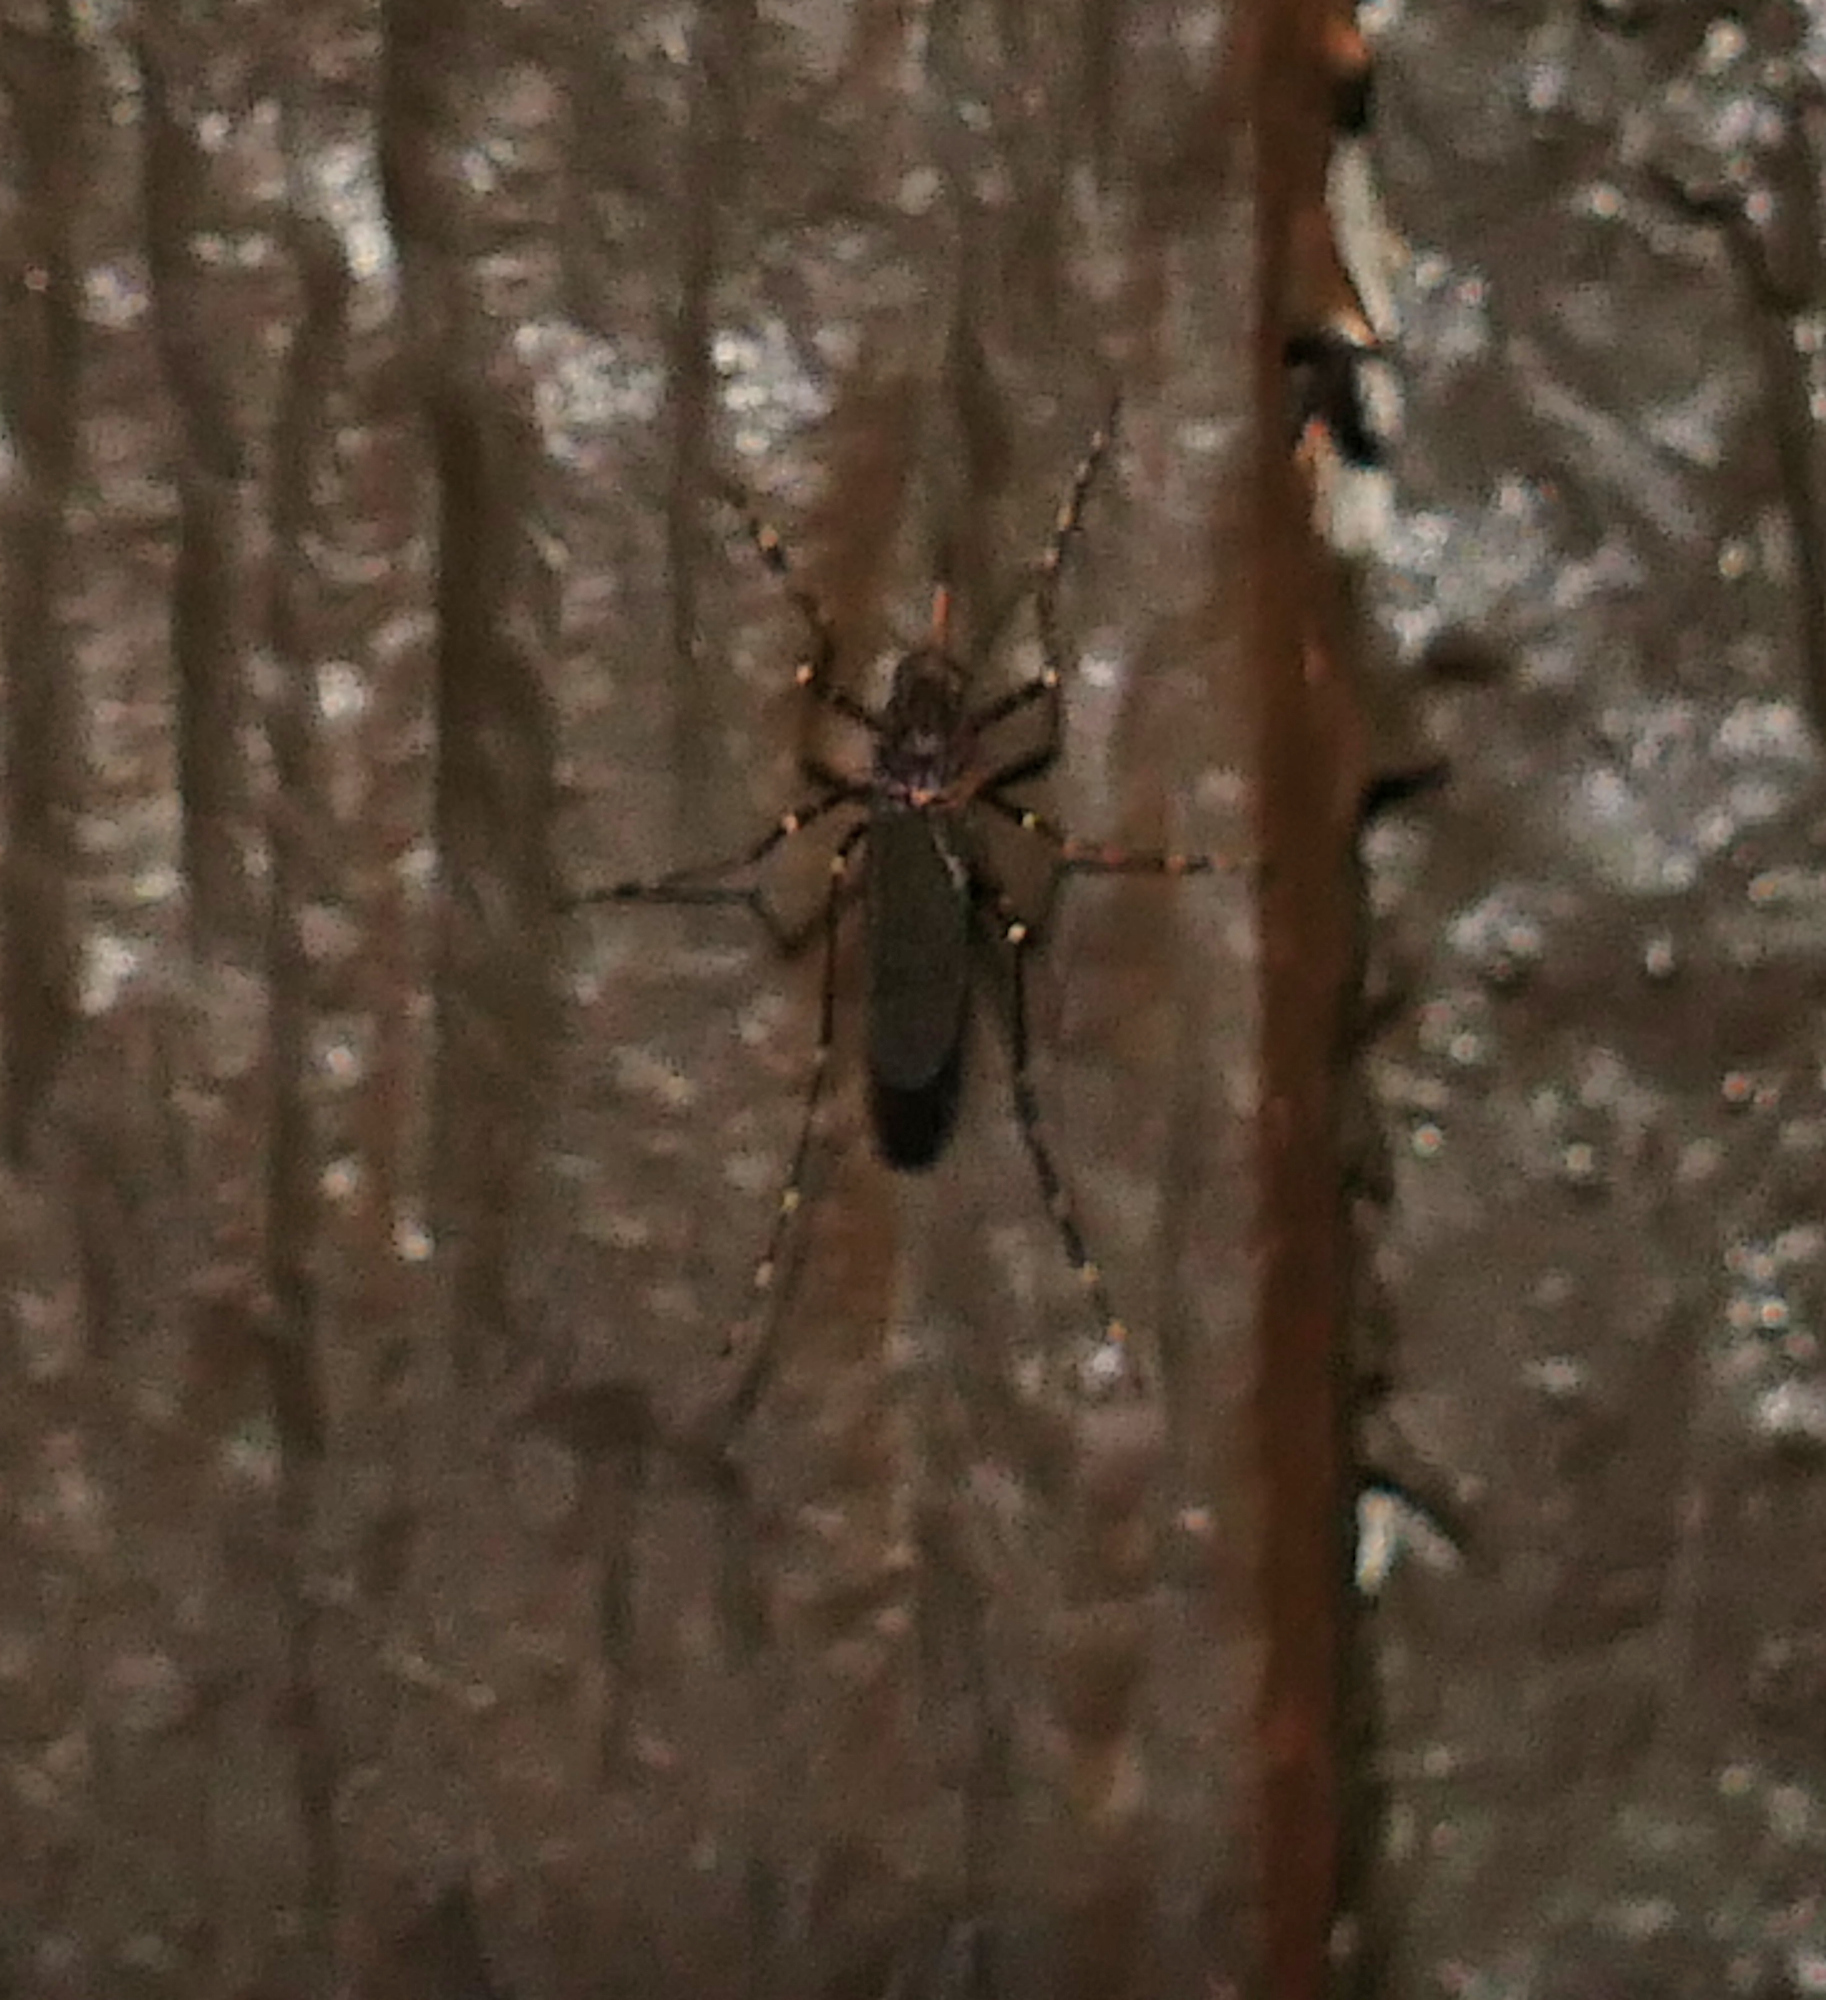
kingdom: Animalia
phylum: Arthropoda
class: Insecta
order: Diptera
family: Culicidae
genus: Psorophora
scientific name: Psorophora columbiae
